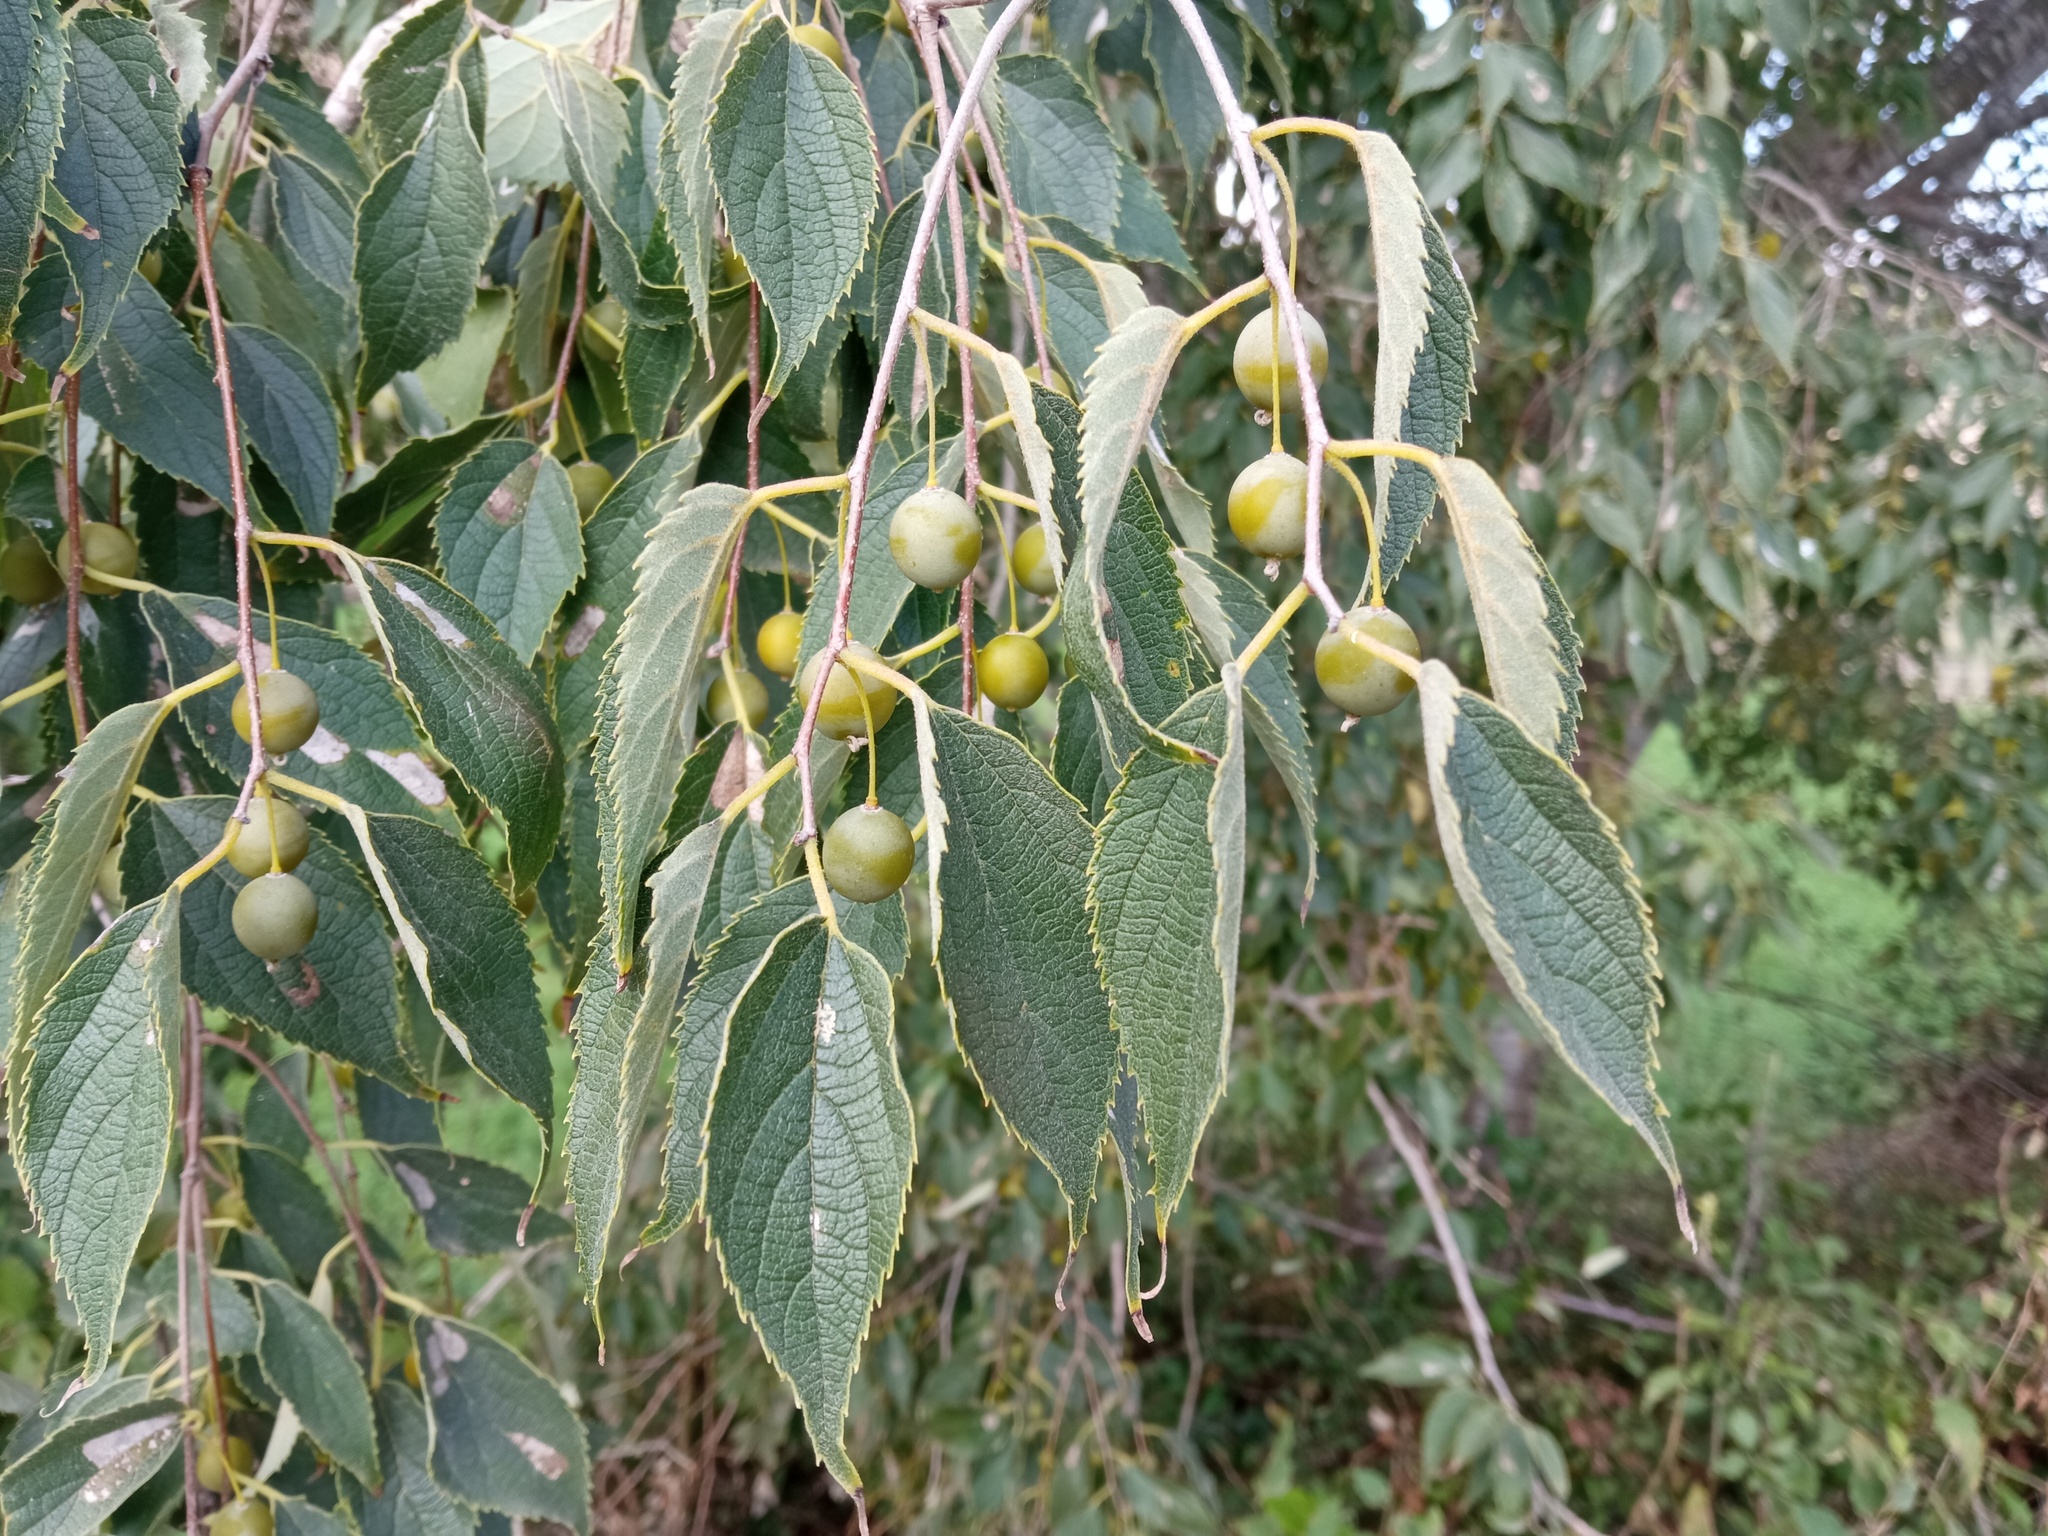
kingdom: Plantae
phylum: Tracheophyta
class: Magnoliopsida
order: Rosales
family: Cannabaceae
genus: Celtis
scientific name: Celtis australis
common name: European hackberry
